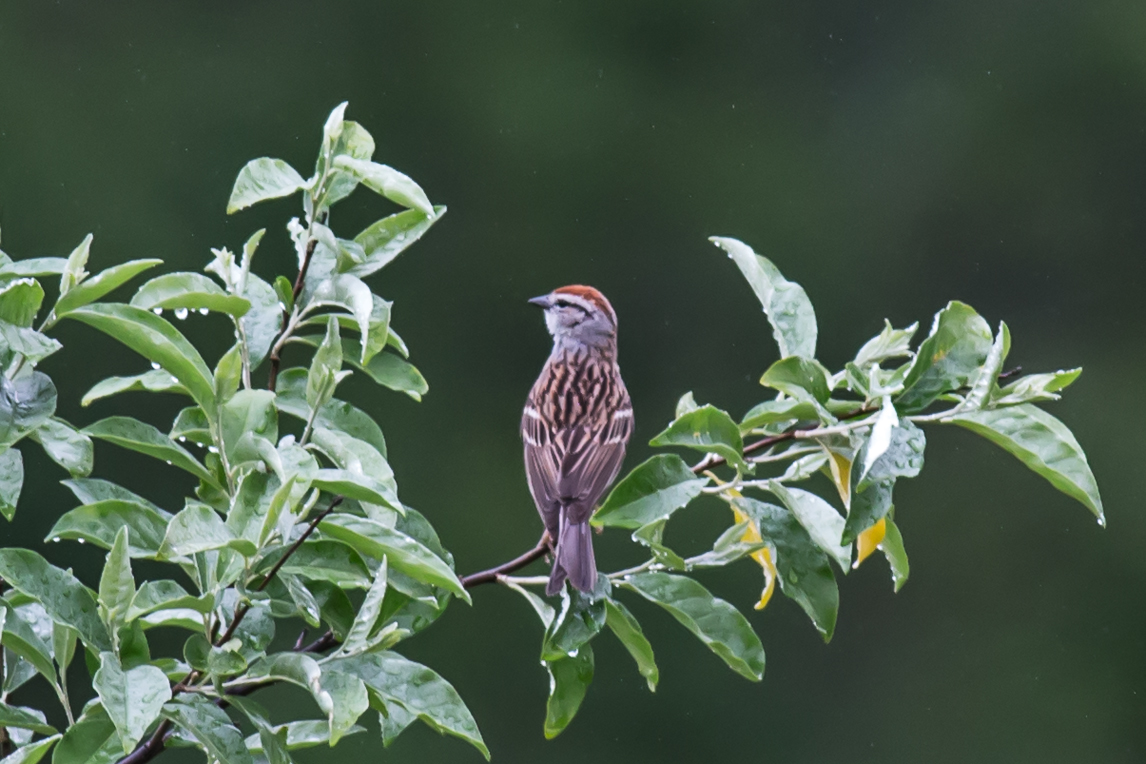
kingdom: Animalia
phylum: Chordata
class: Aves
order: Passeriformes
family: Passerellidae
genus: Spizella
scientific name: Spizella passerina
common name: Chipping sparrow
